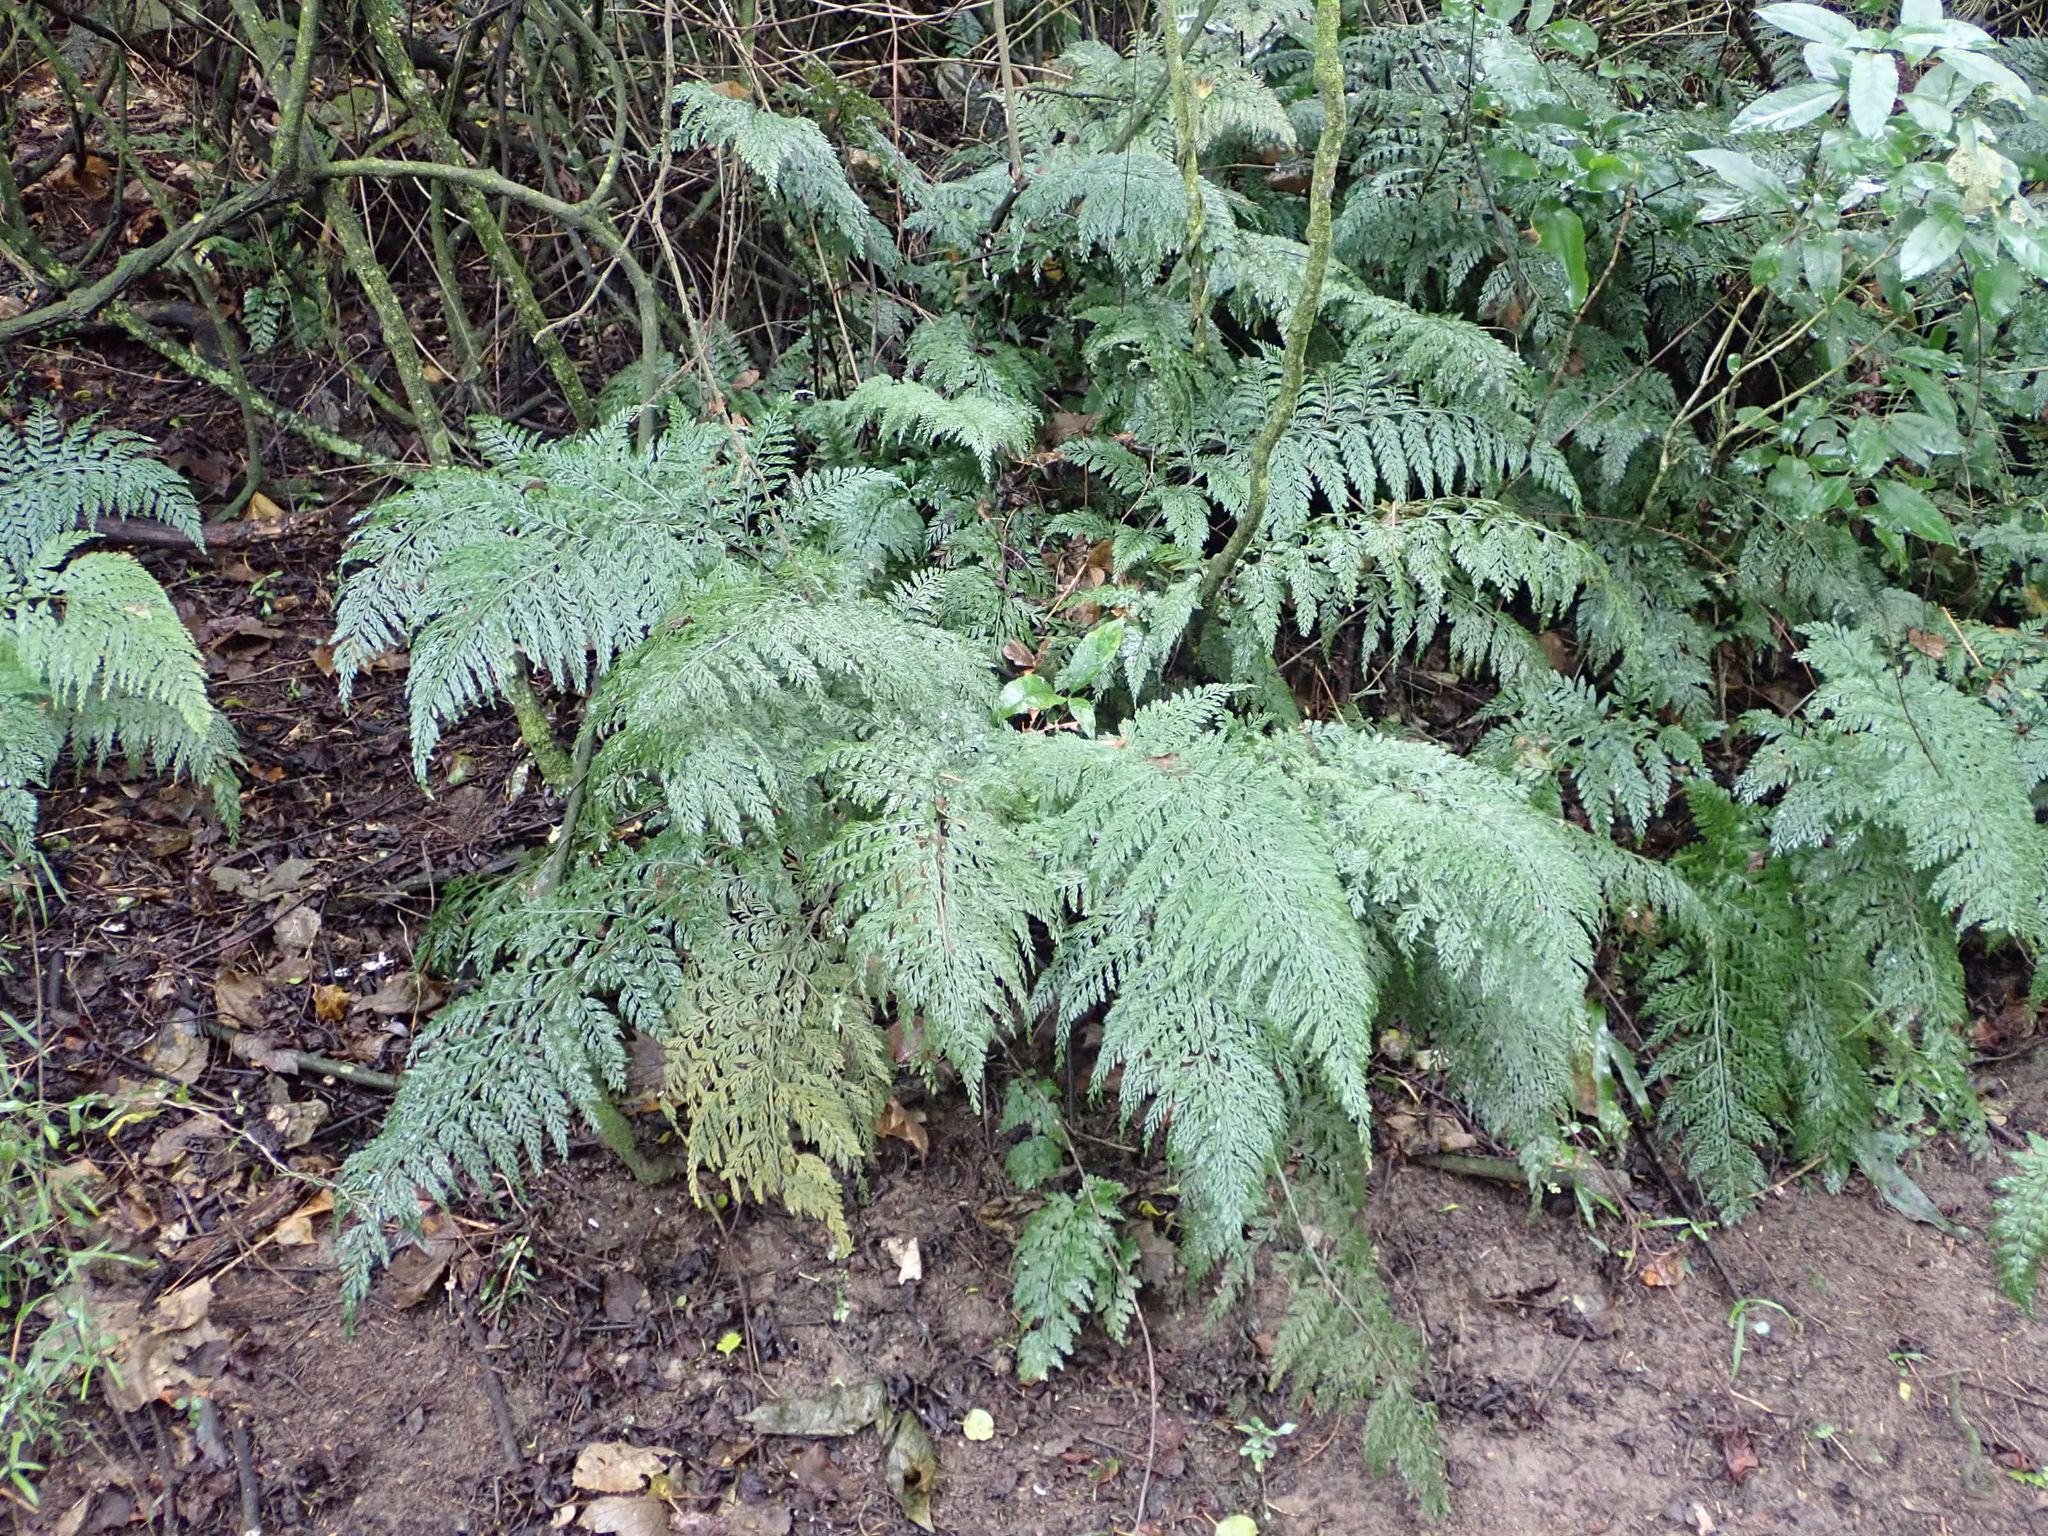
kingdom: Plantae
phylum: Tracheophyta
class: Polypodiopsida
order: Polypodiales
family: Aspleniaceae
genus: Asplenium
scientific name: Asplenium
